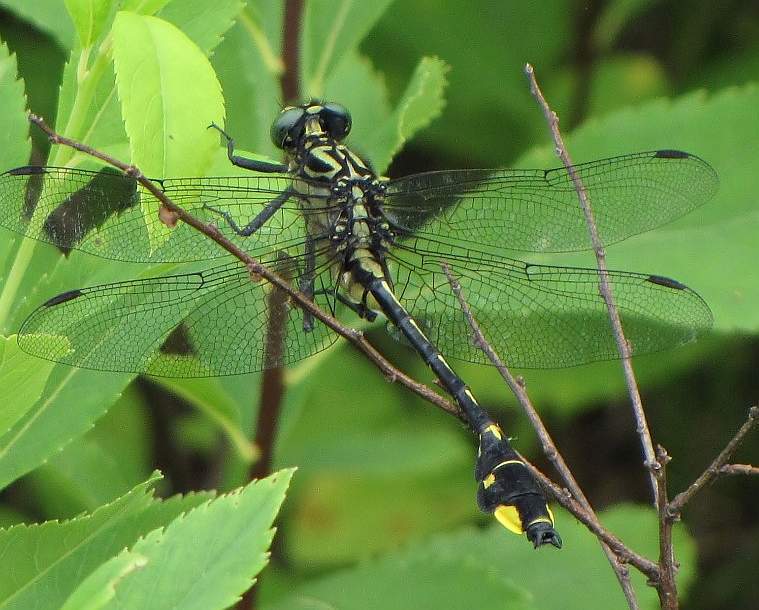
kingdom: Animalia
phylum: Arthropoda
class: Insecta
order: Odonata
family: Gomphidae
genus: Gomphurus
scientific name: Gomphurus vastus
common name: Cobra clubtail
